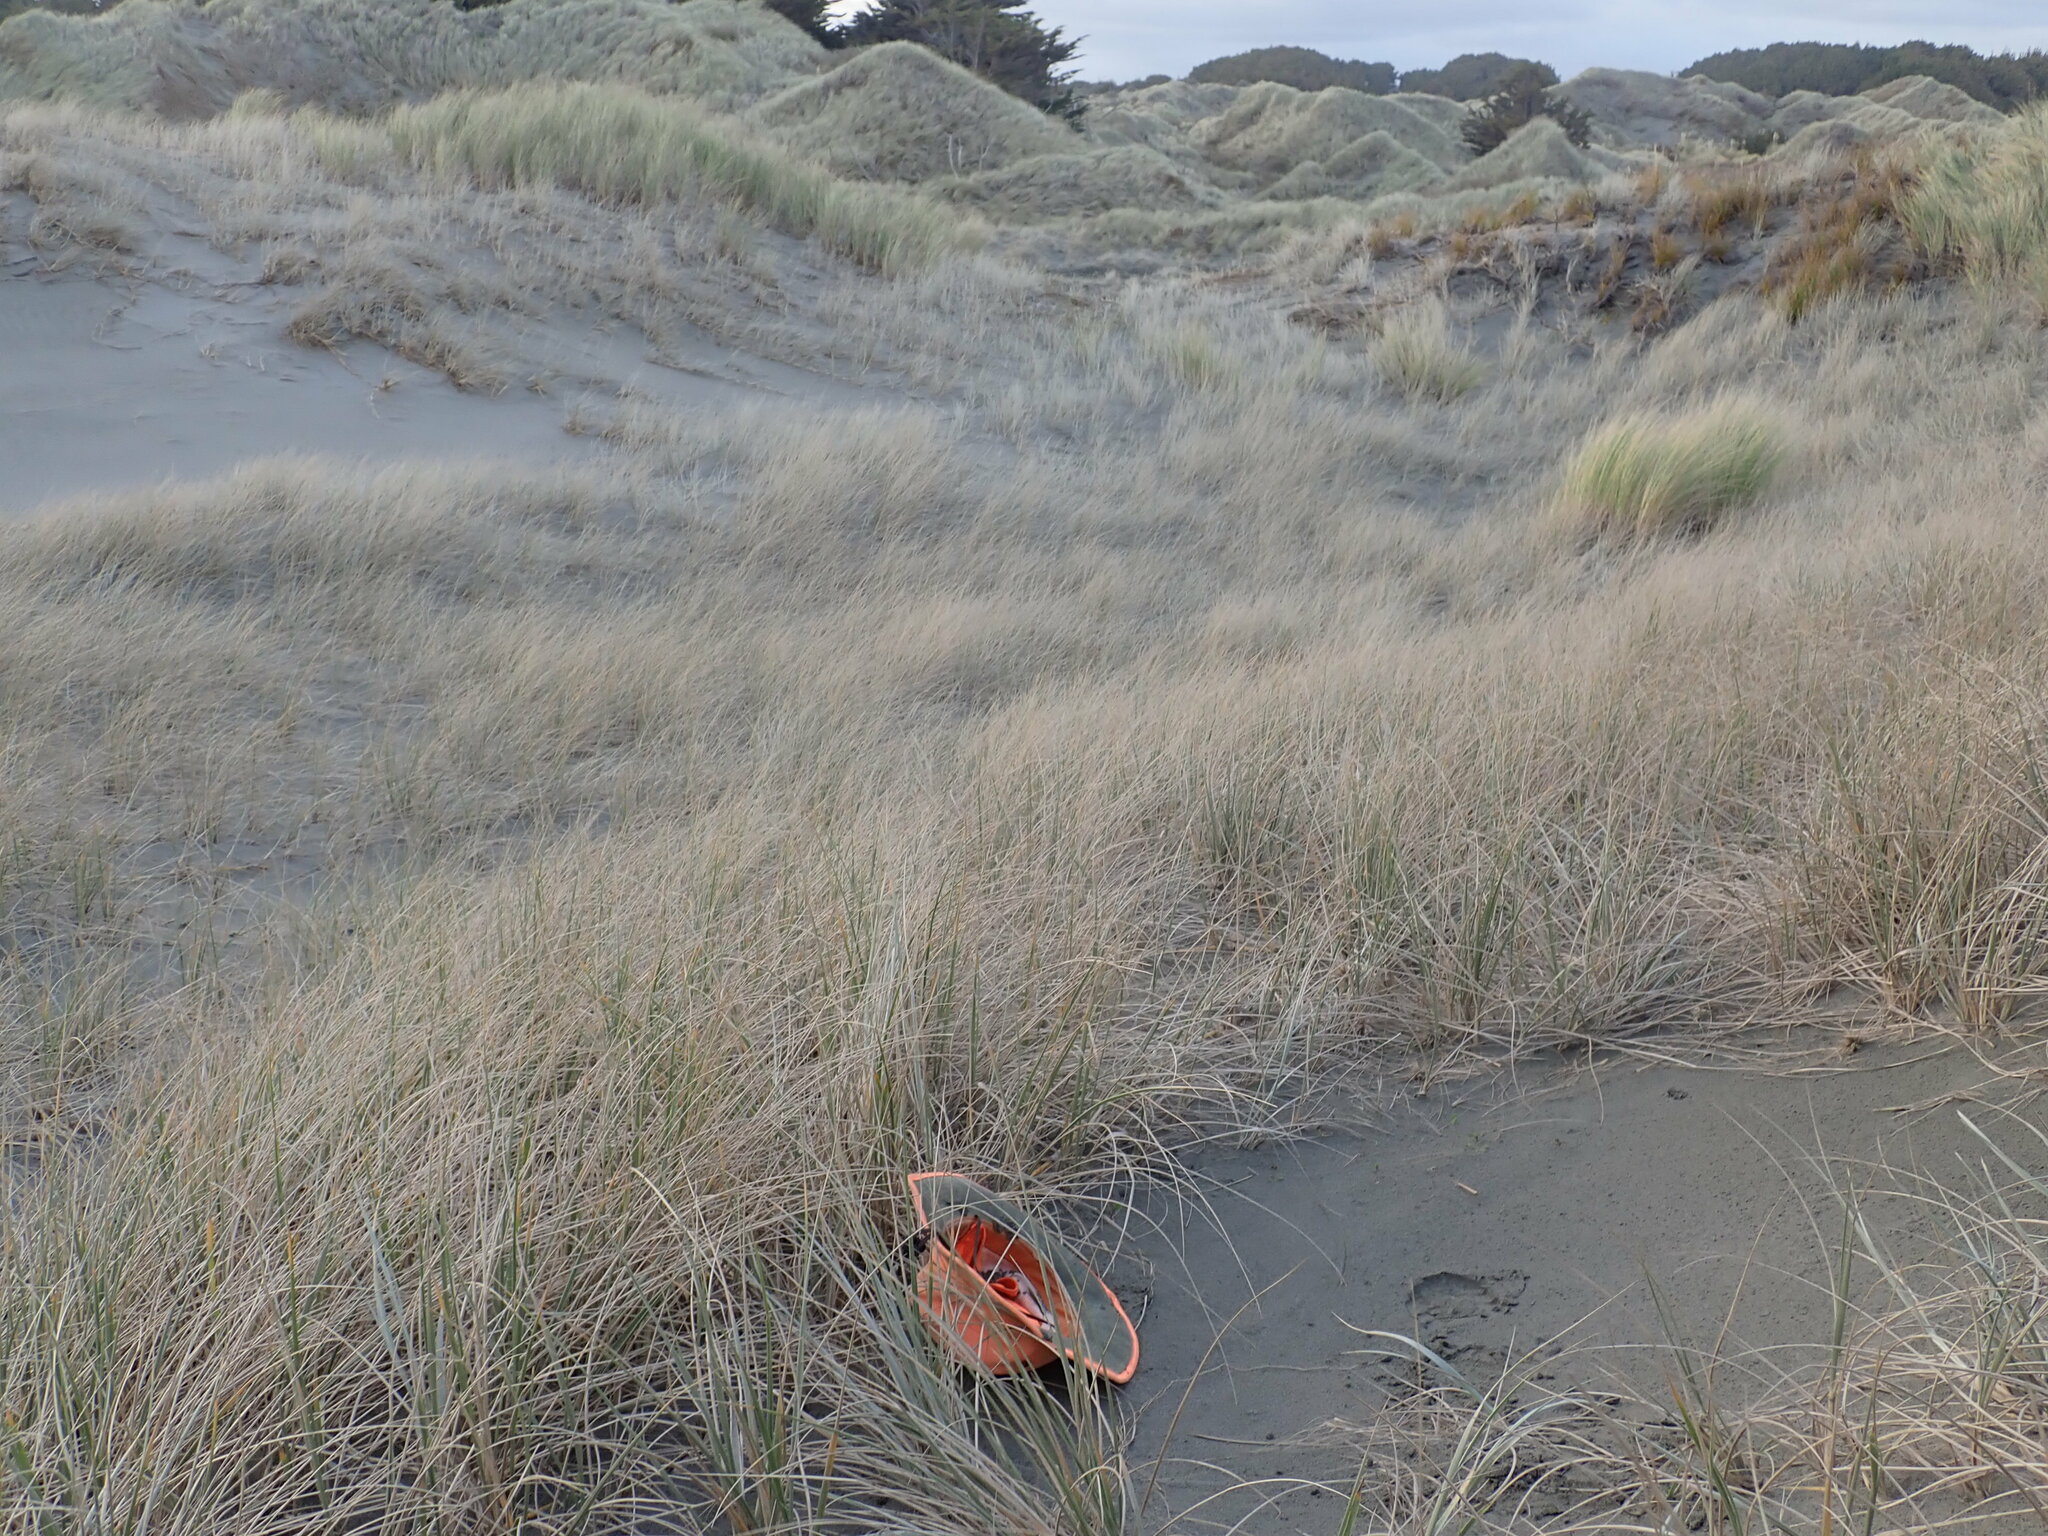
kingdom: Animalia
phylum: Arthropoda
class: Malacostraca
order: Isopoda
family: Porcellionidae
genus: Porcellio
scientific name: Porcellio scaber
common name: Common rough woodlouse
